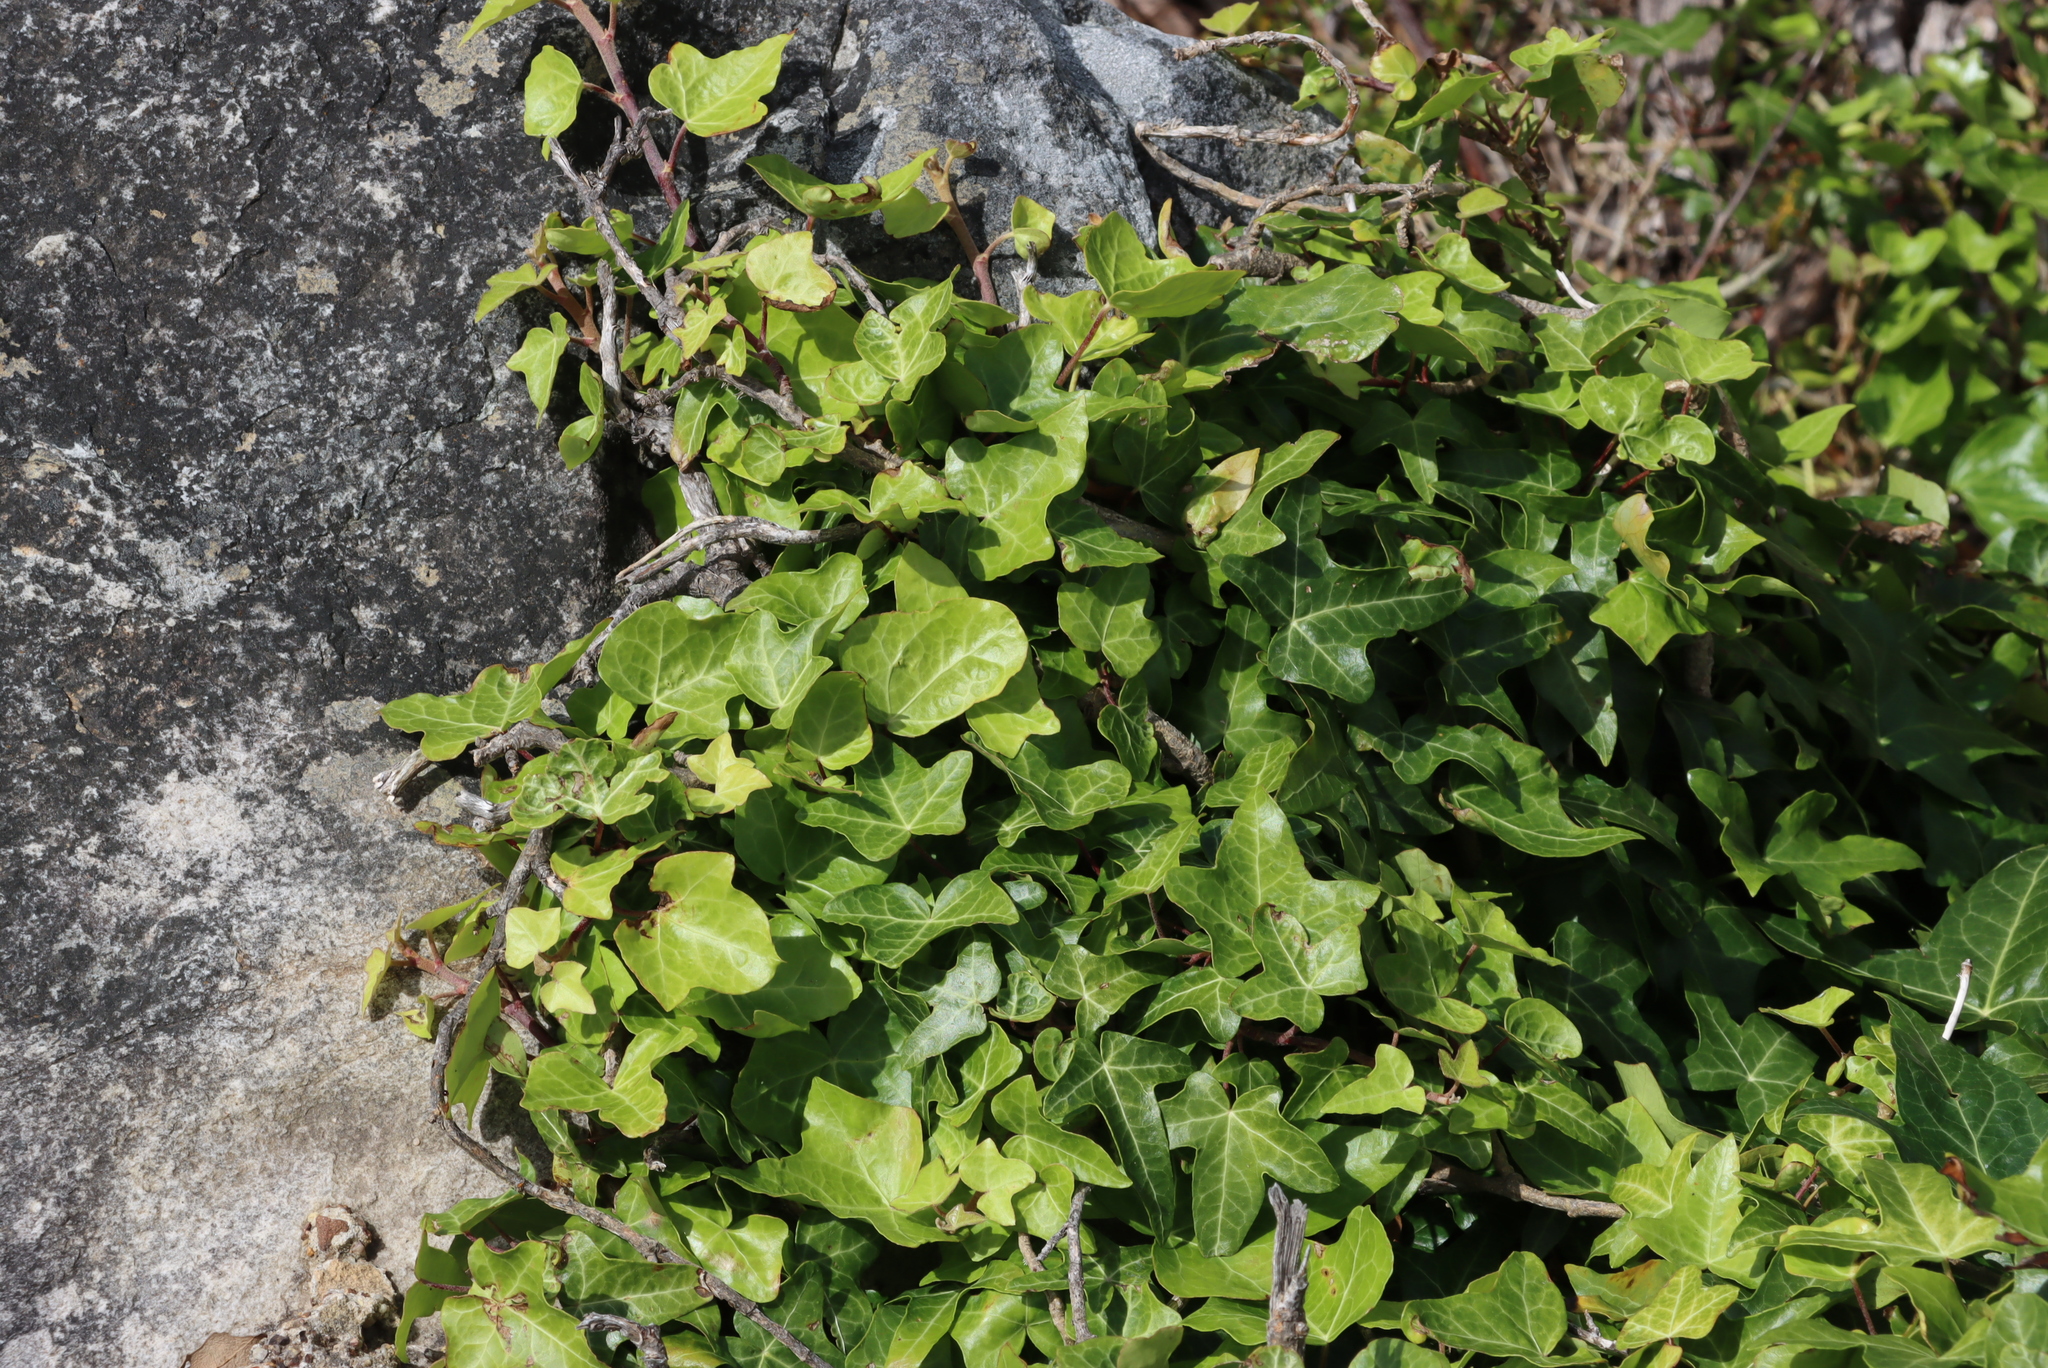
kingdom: Plantae
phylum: Tracheophyta
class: Magnoliopsida
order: Apiales
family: Araliaceae
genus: Hedera
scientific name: Hedera helix
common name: Ivy
